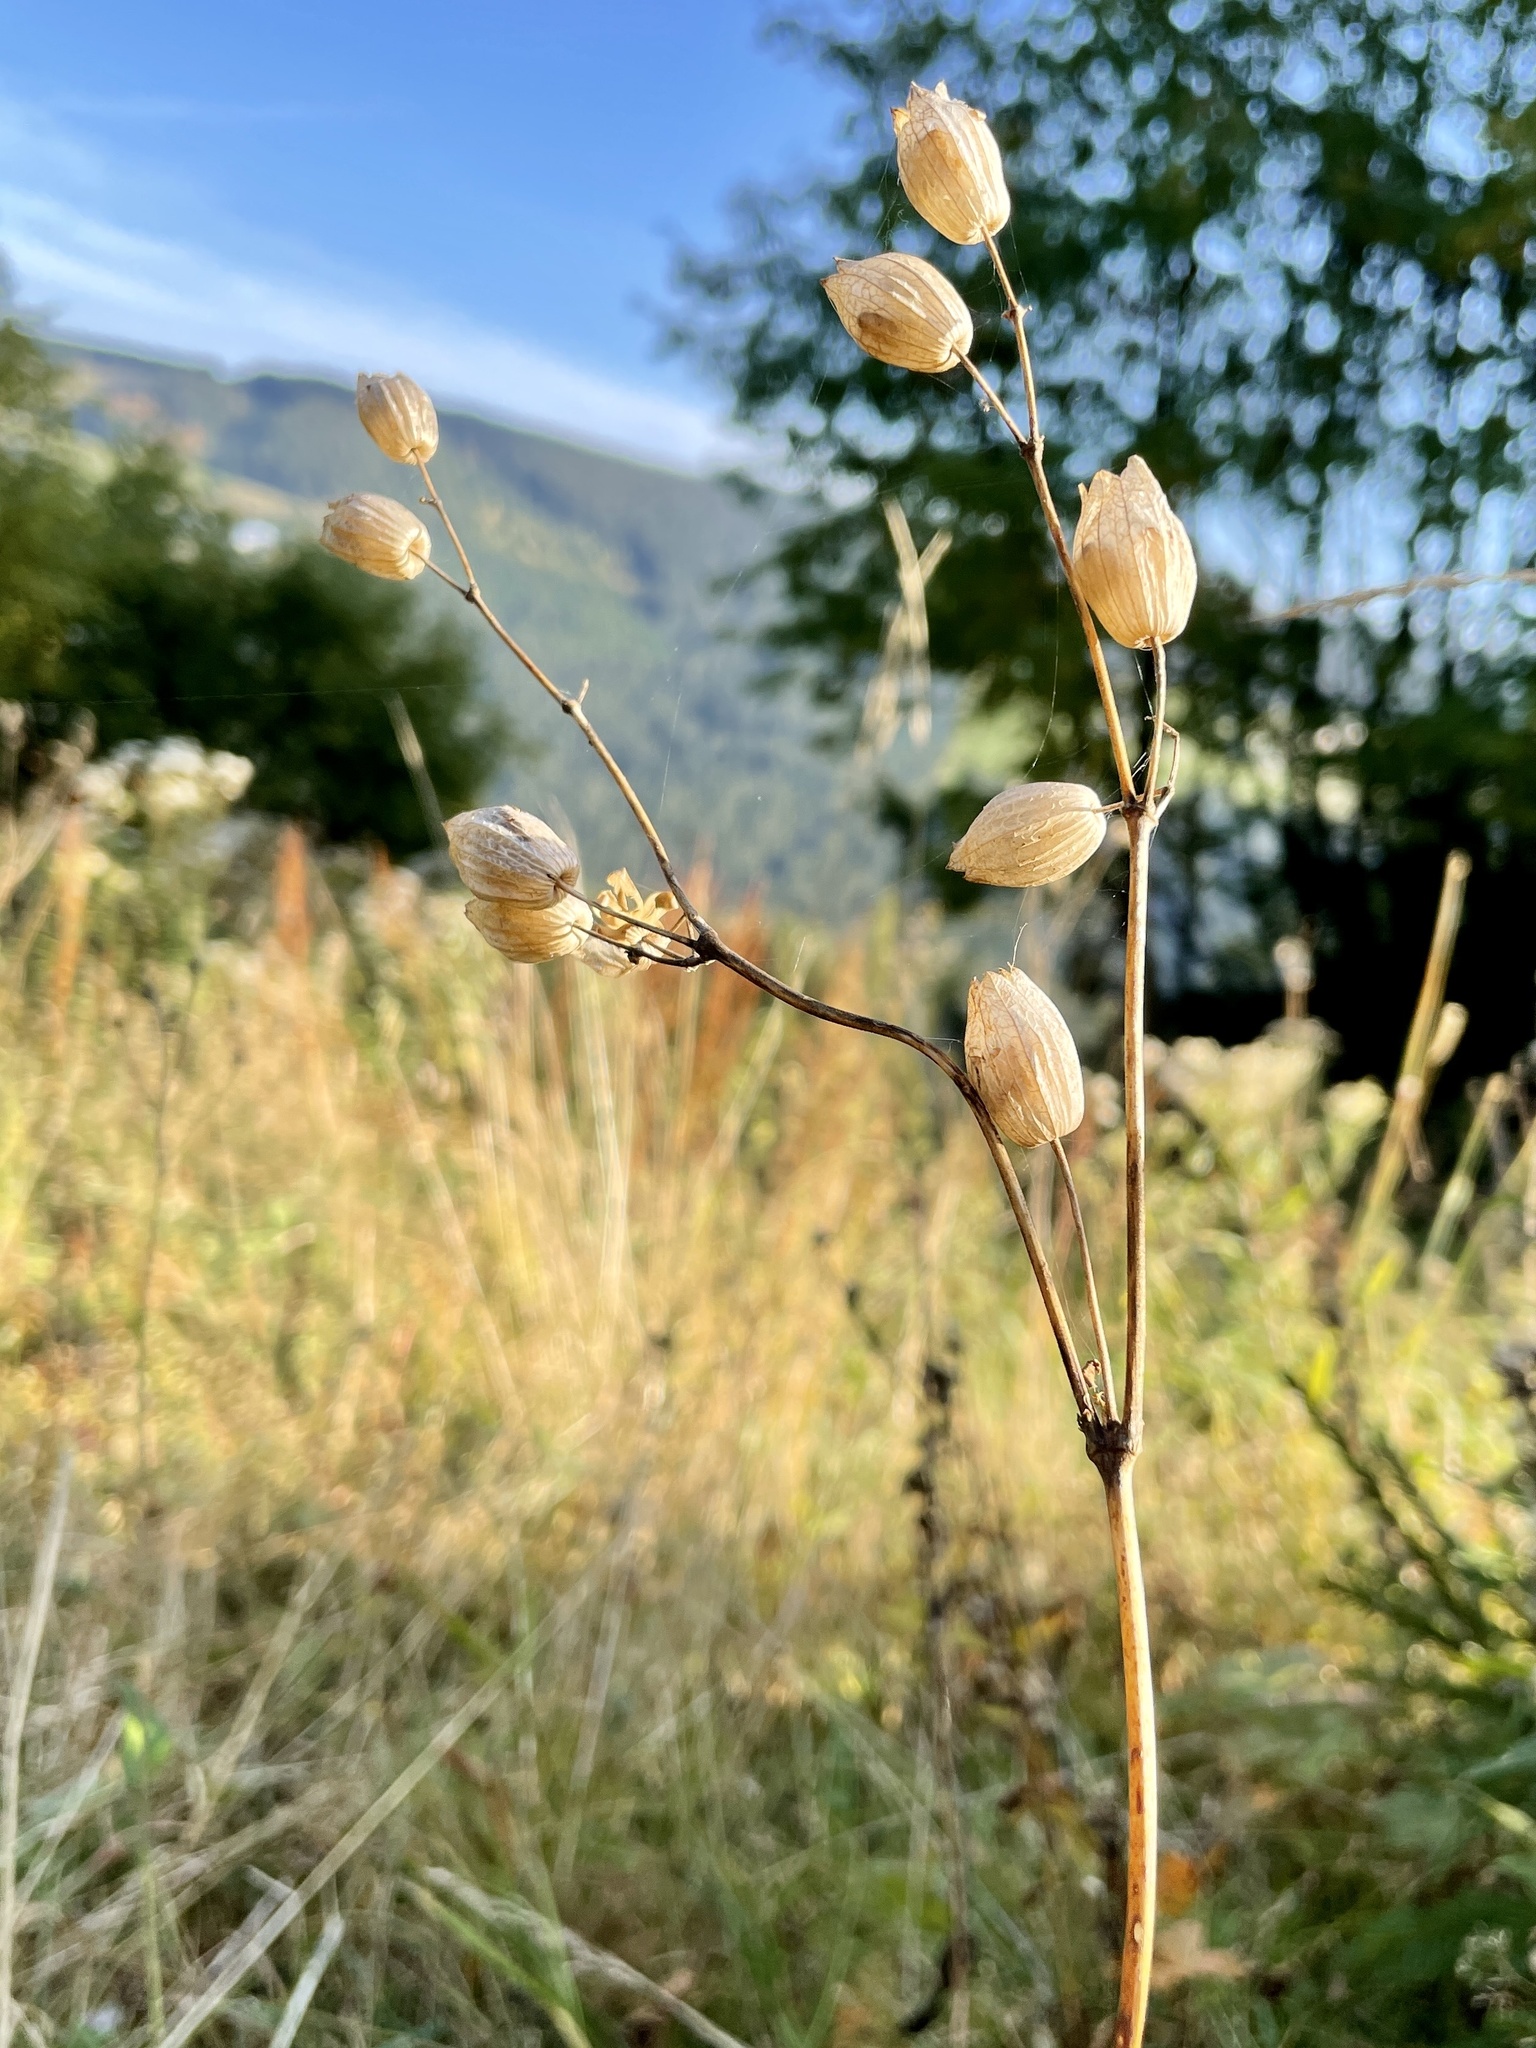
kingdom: Plantae
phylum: Tracheophyta
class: Magnoliopsida
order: Caryophyllales
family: Caryophyllaceae
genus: Silene
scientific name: Silene vulgaris
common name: Bladder campion
